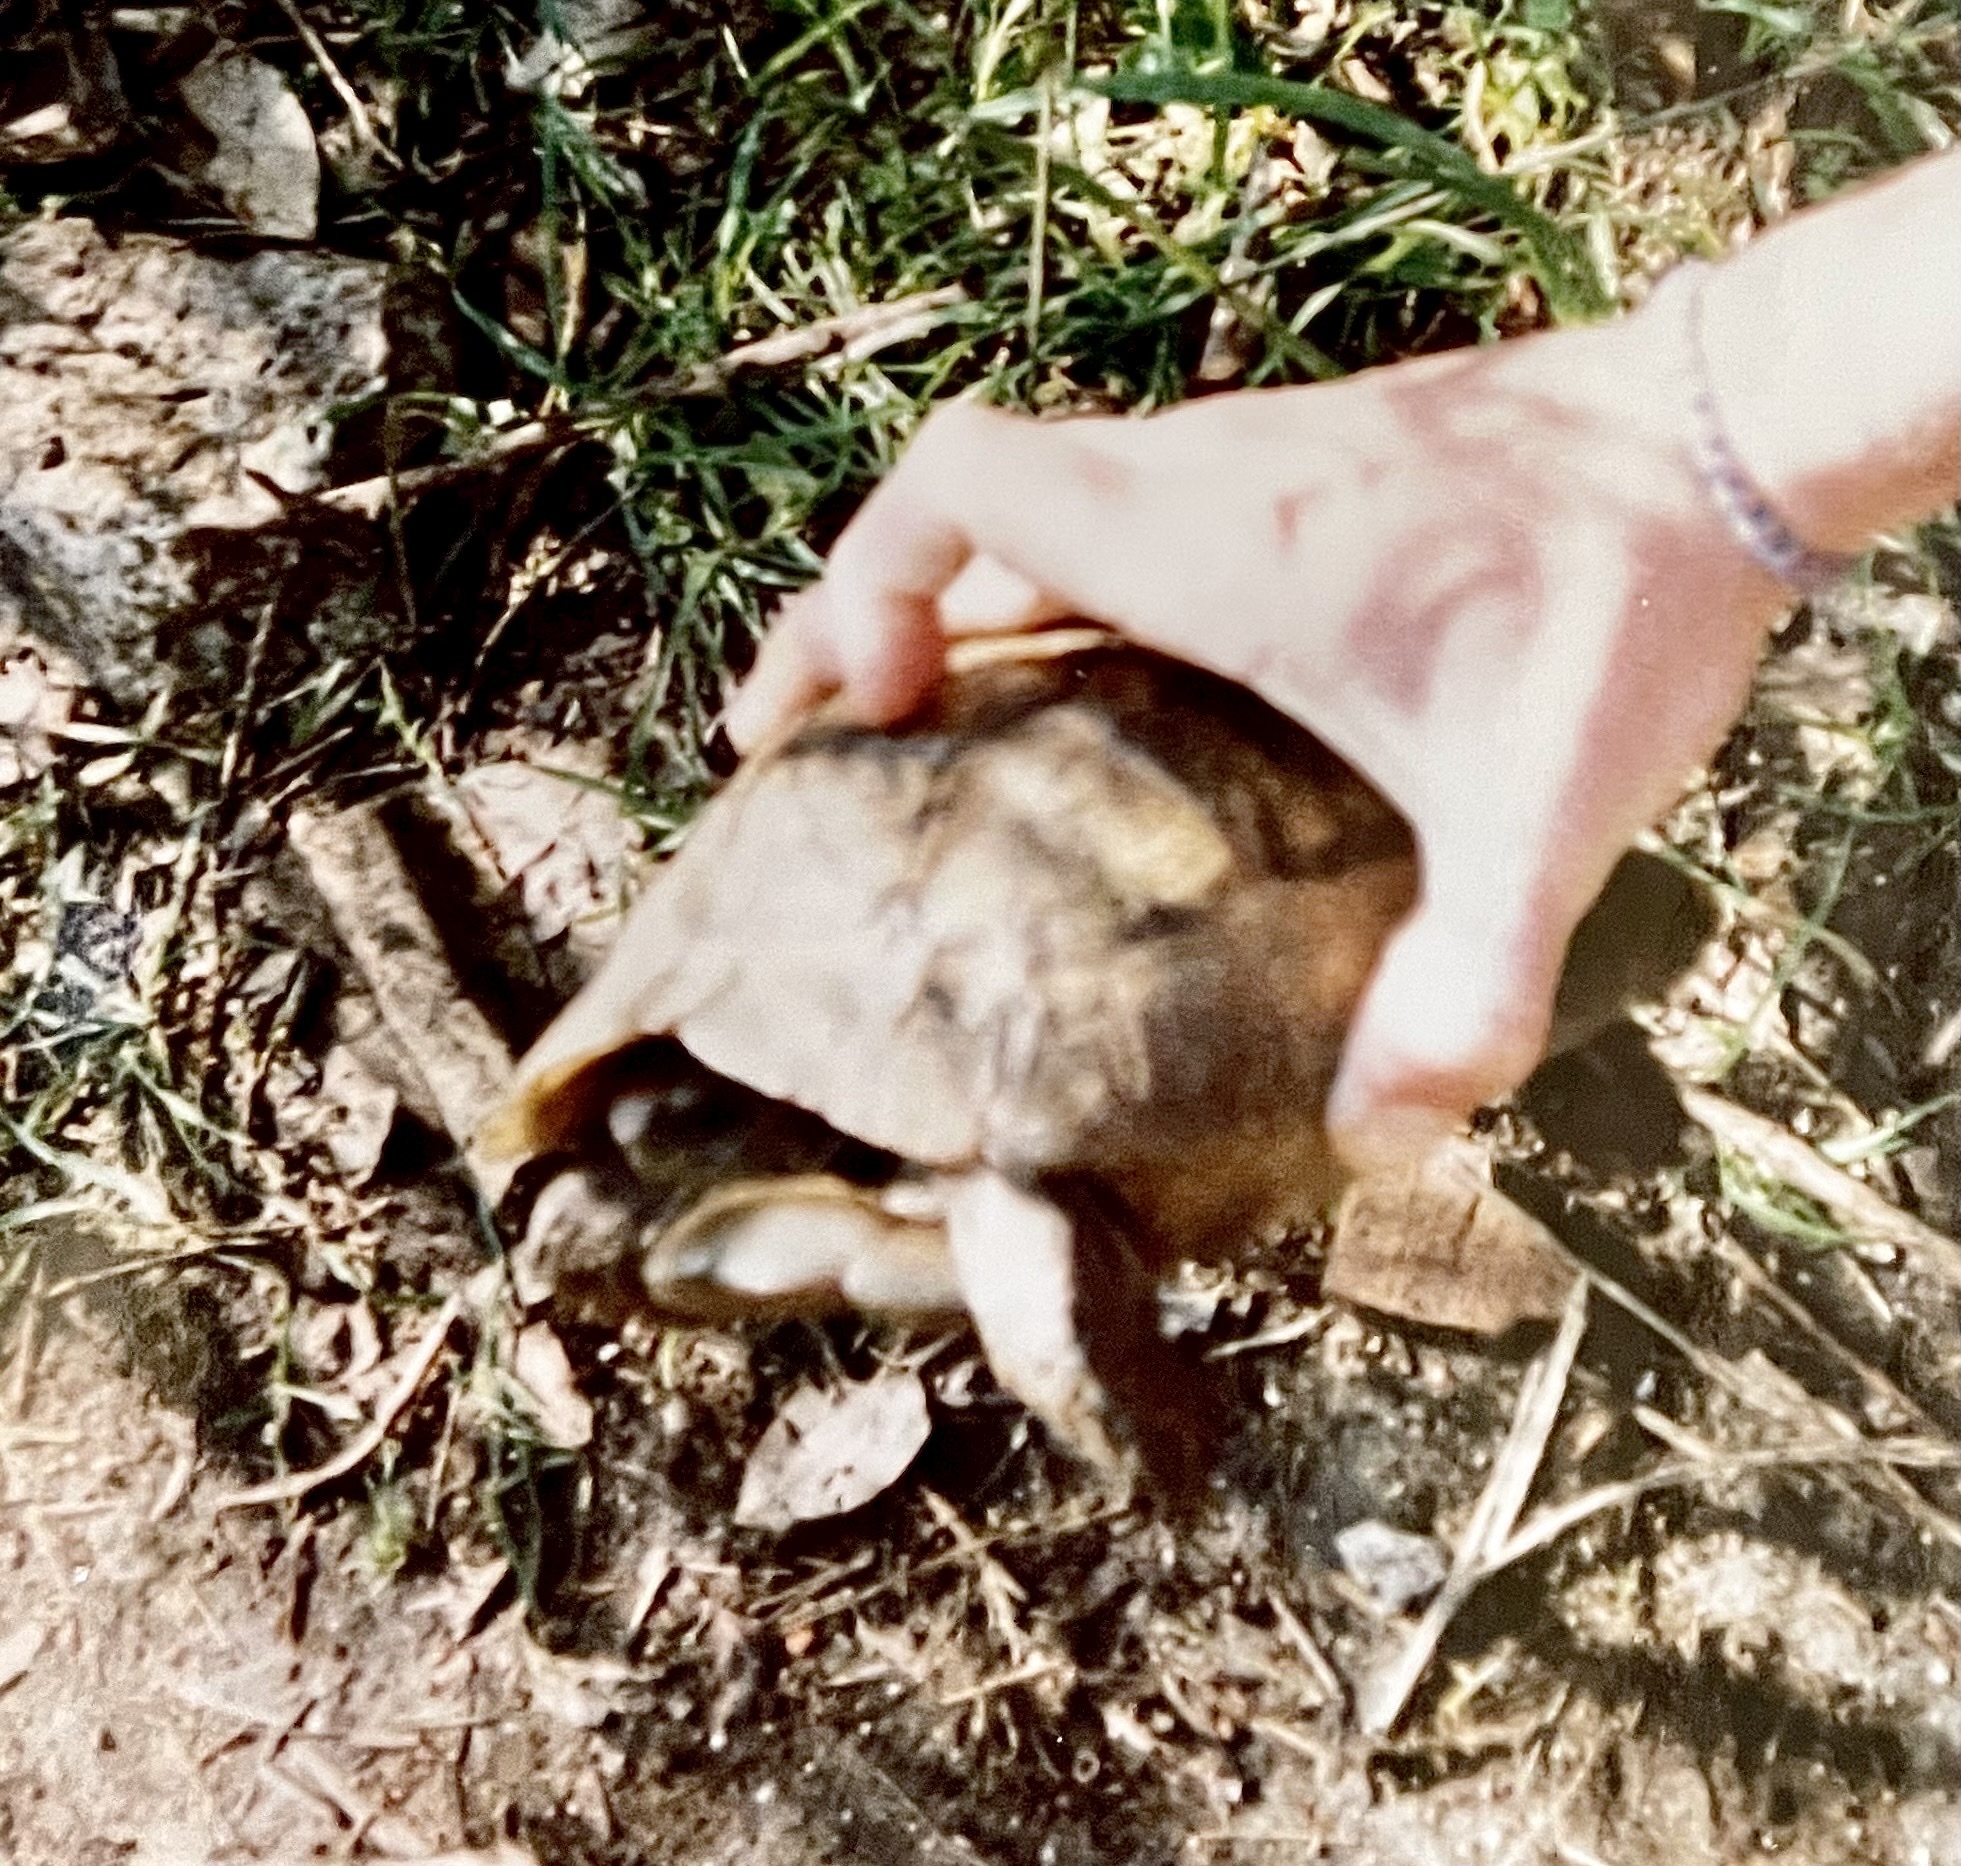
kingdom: Animalia
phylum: Chordata
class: Testudines
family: Testudinidae
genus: Testudo
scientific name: Testudo graeca
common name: Common tortoise
